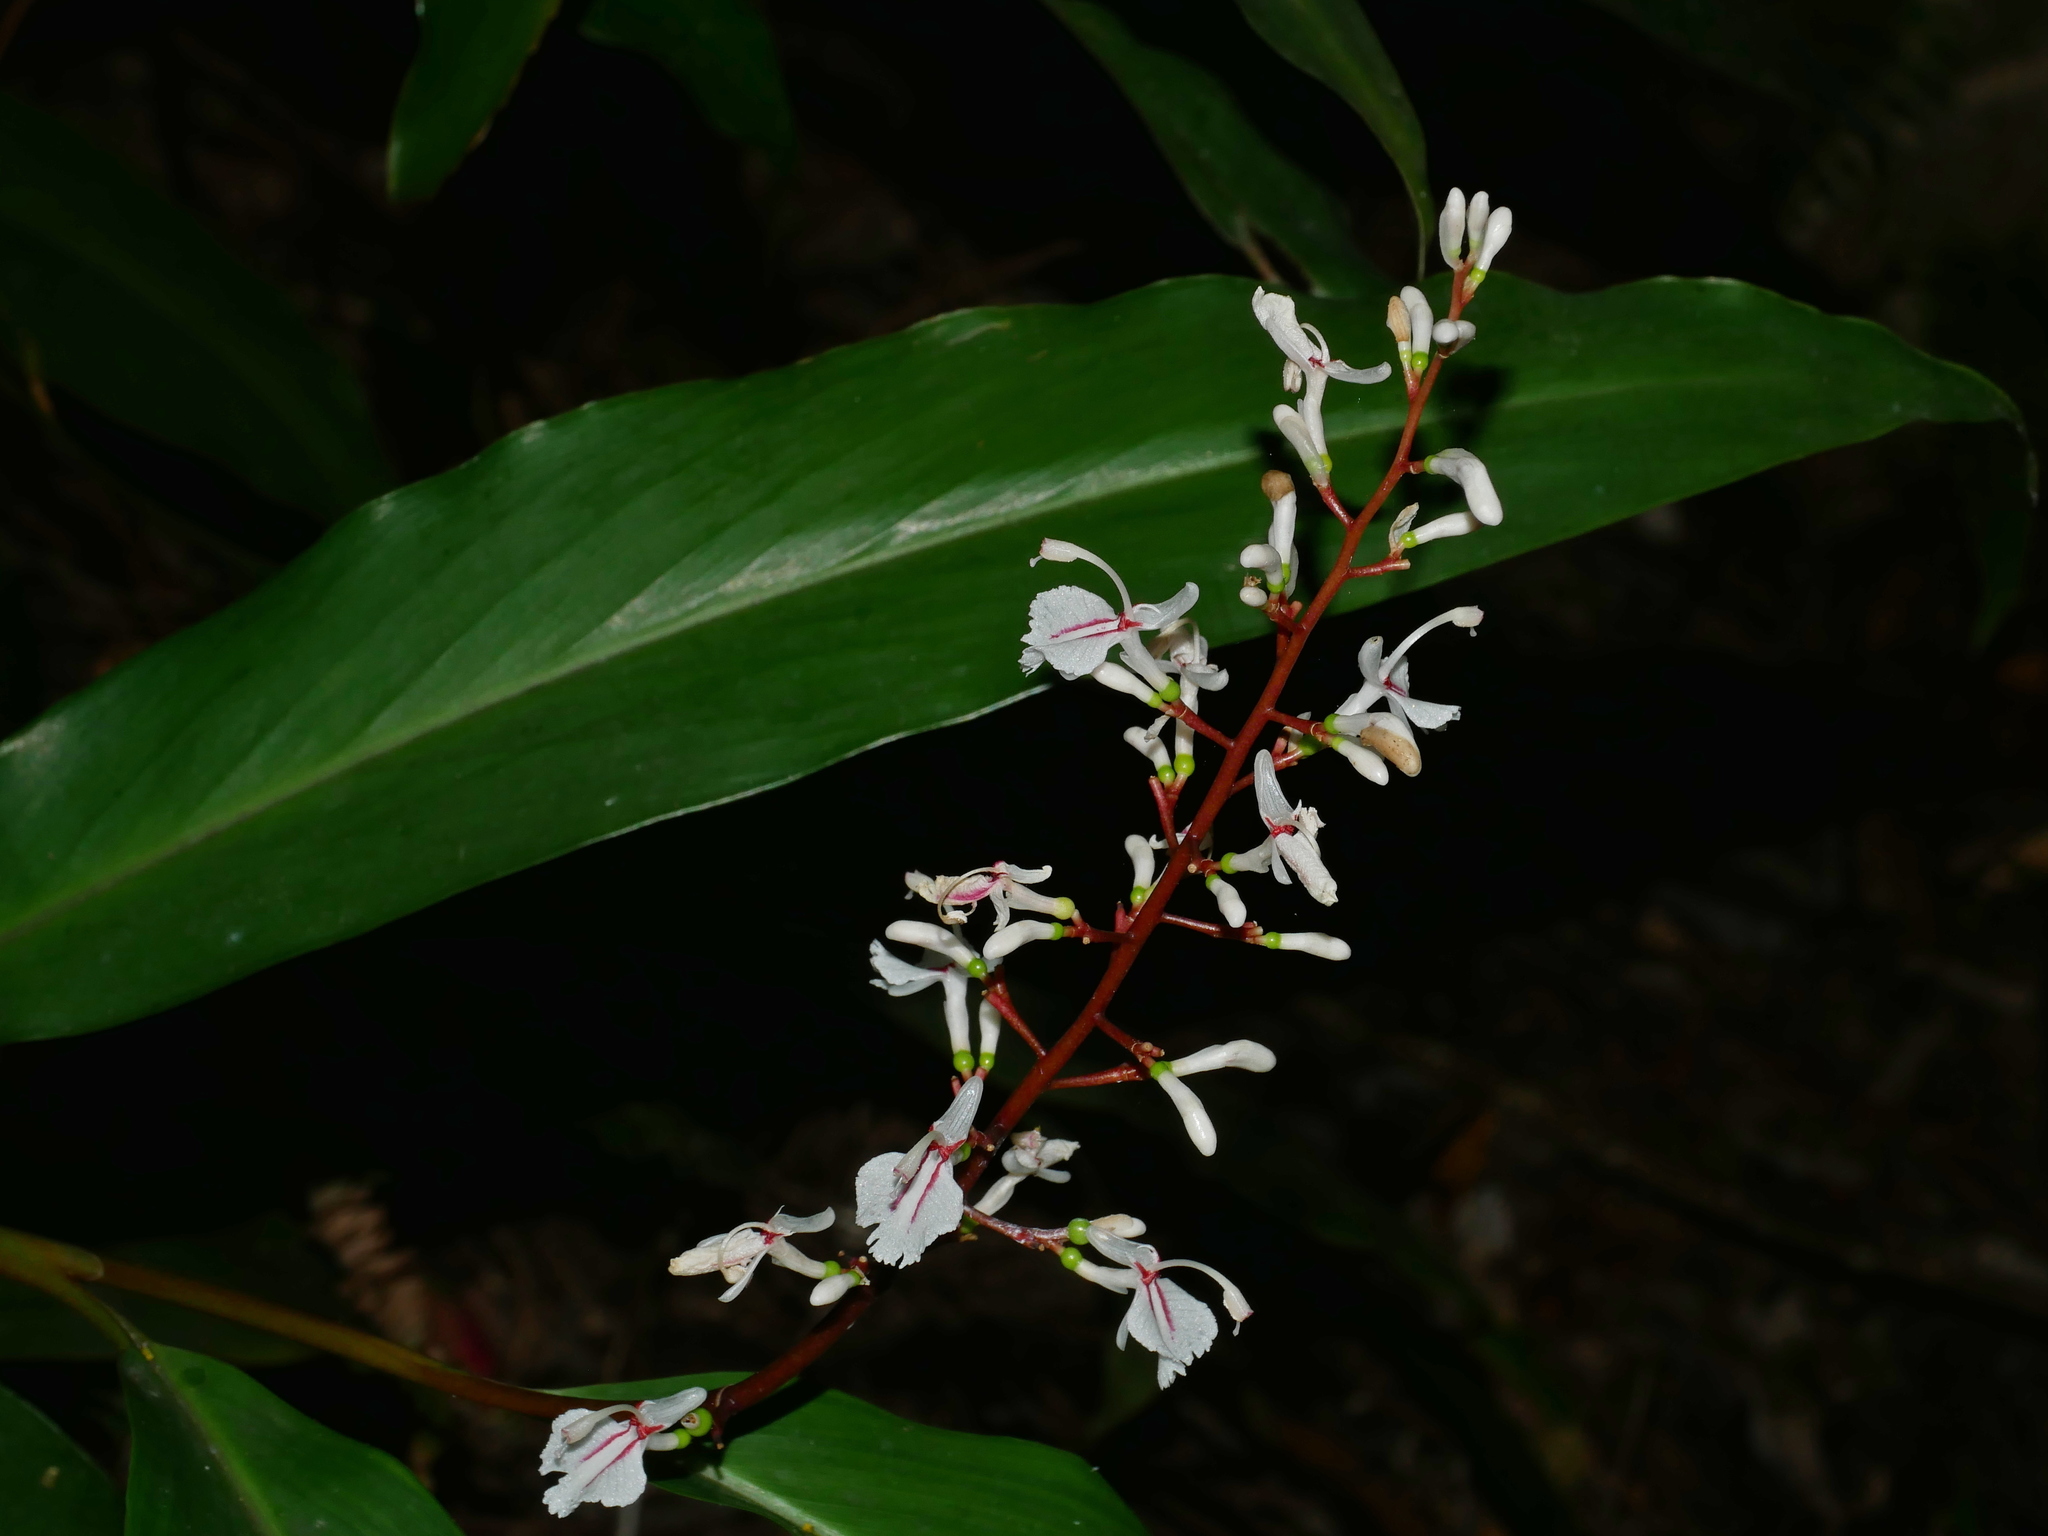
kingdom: Plantae
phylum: Tracheophyta
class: Liliopsida
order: Zingiberales
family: Zingiberaceae
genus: Alpinia
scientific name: Alpinia intermedia
